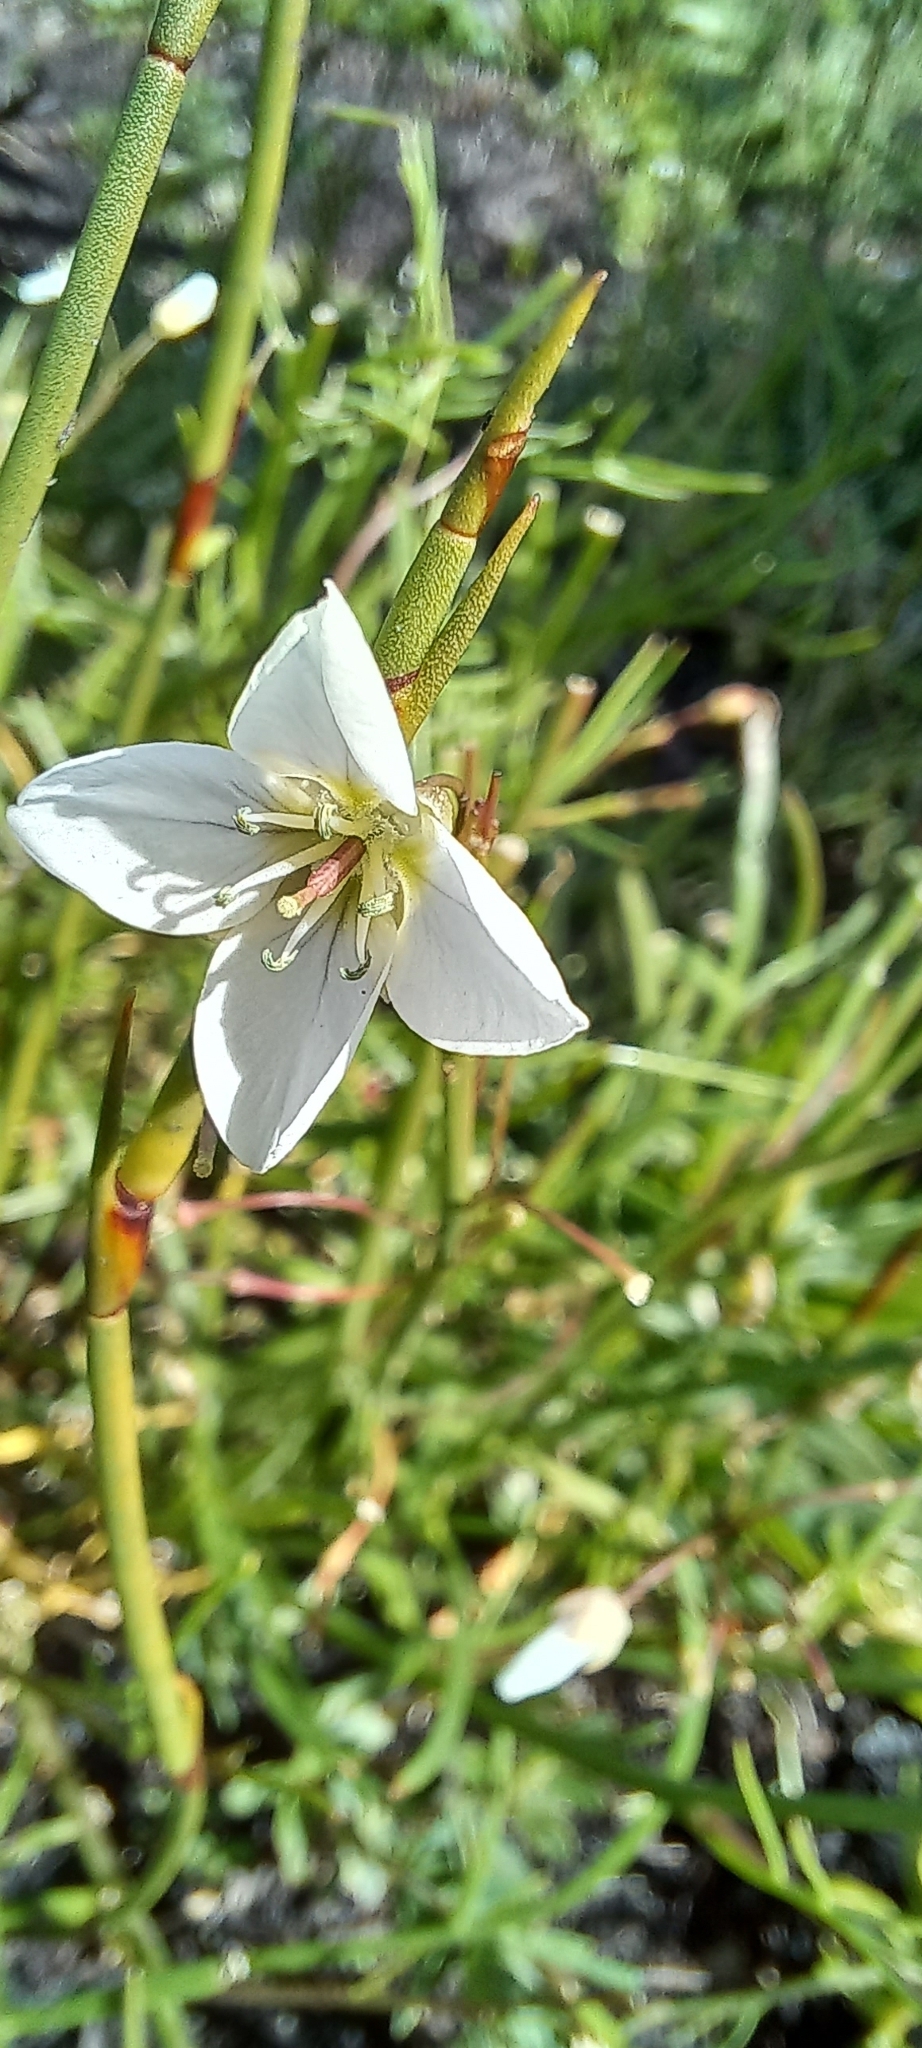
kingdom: Plantae
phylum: Tracheophyta
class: Magnoliopsida
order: Brassicales
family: Brassicaceae
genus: Heliophila
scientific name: Heliophila meyeri
